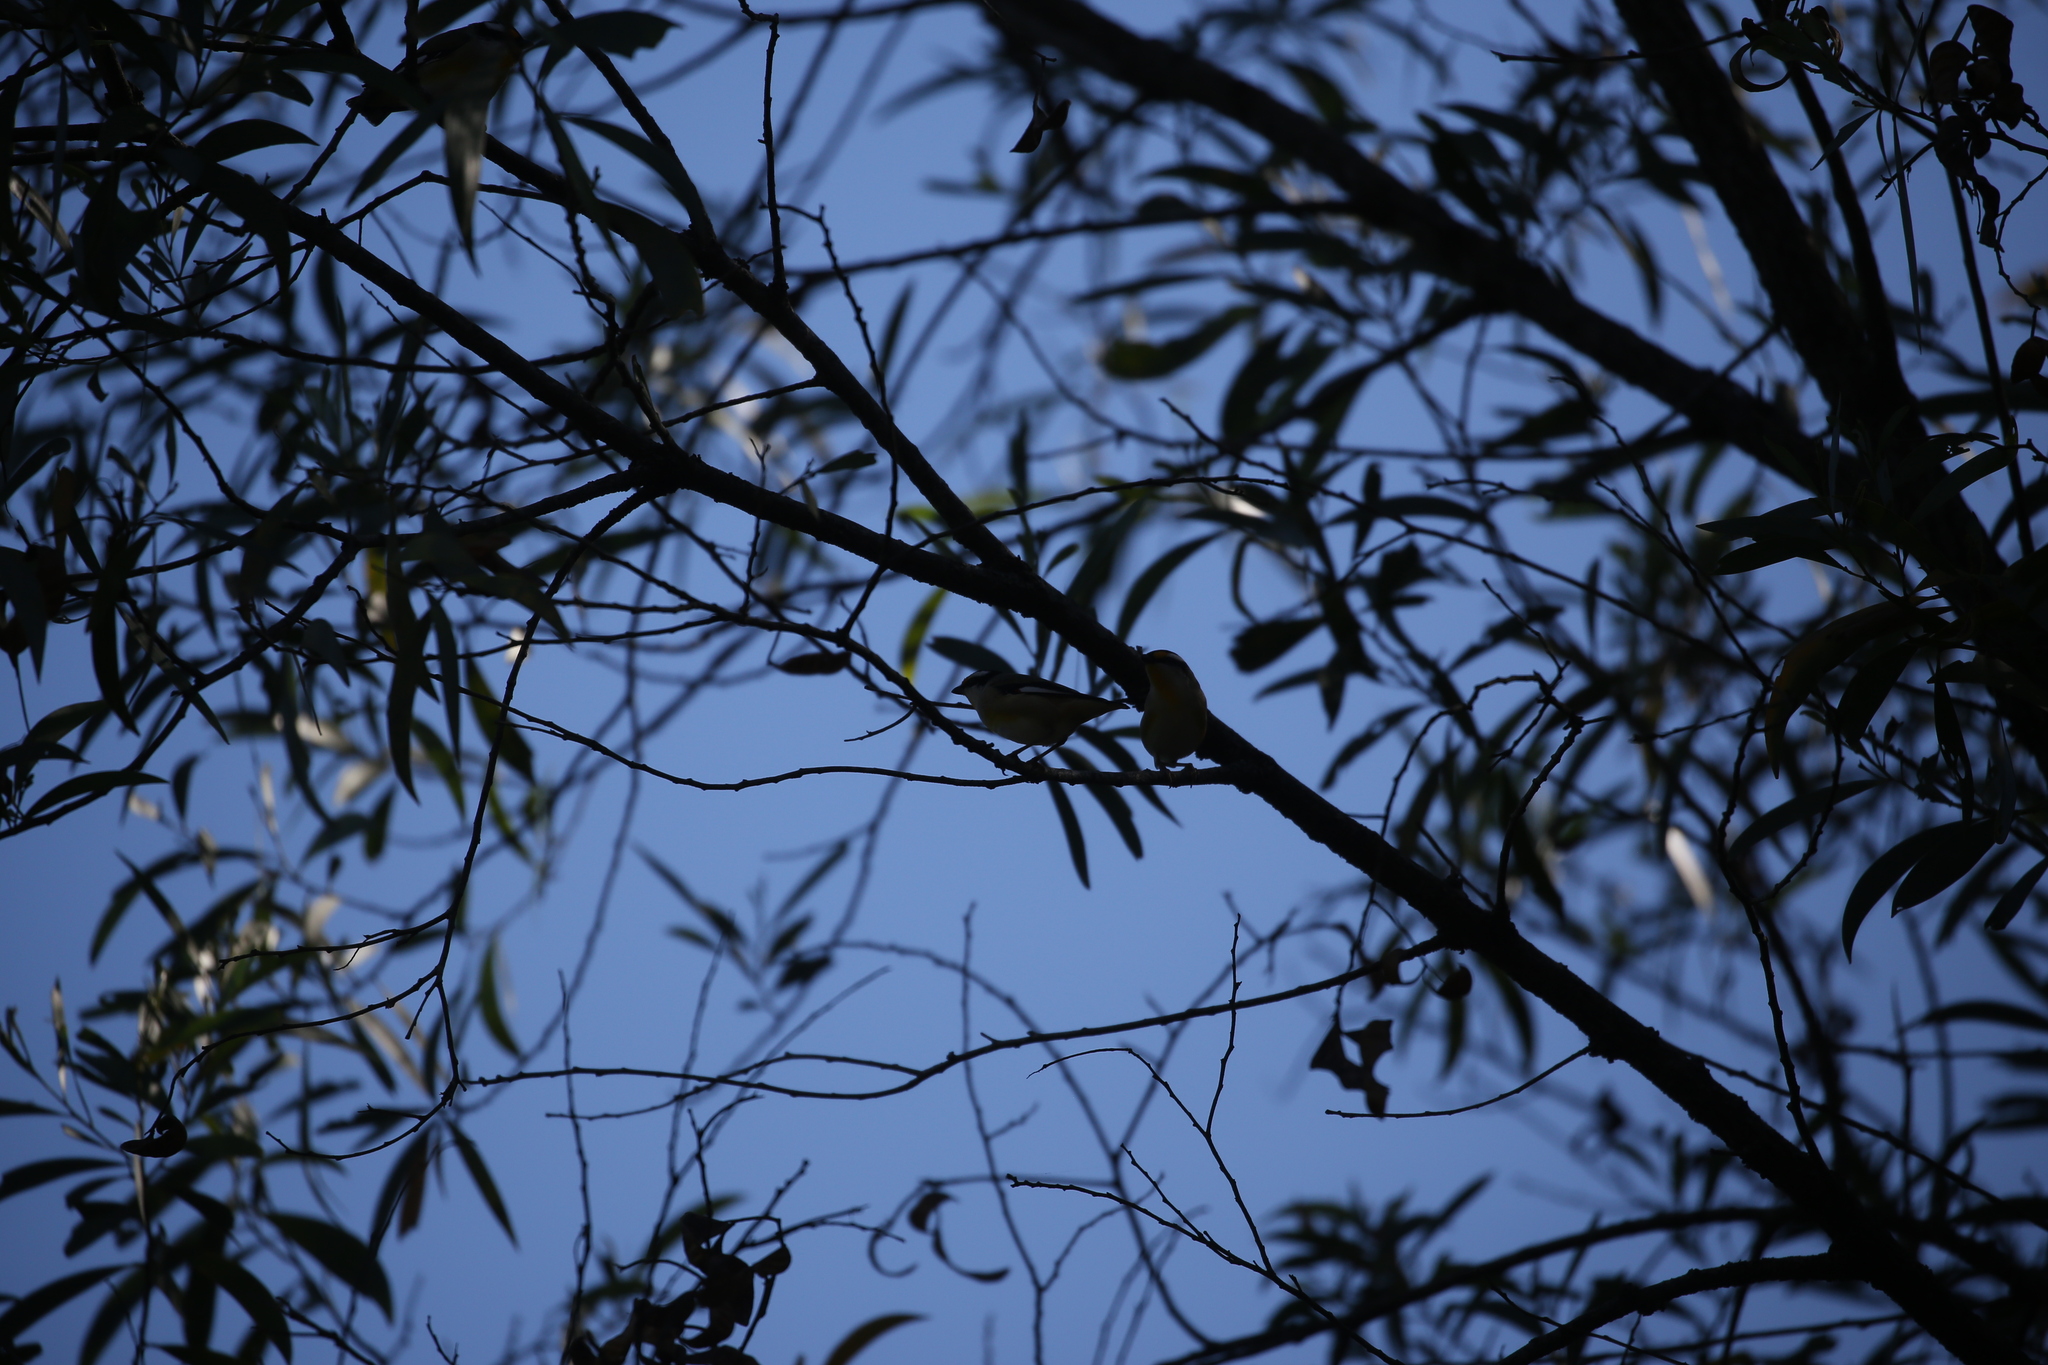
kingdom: Animalia
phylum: Chordata
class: Aves
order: Passeriformes
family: Pardalotidae
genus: Pardalotus
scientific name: Pardalotus striatus
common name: Striated pardalote
